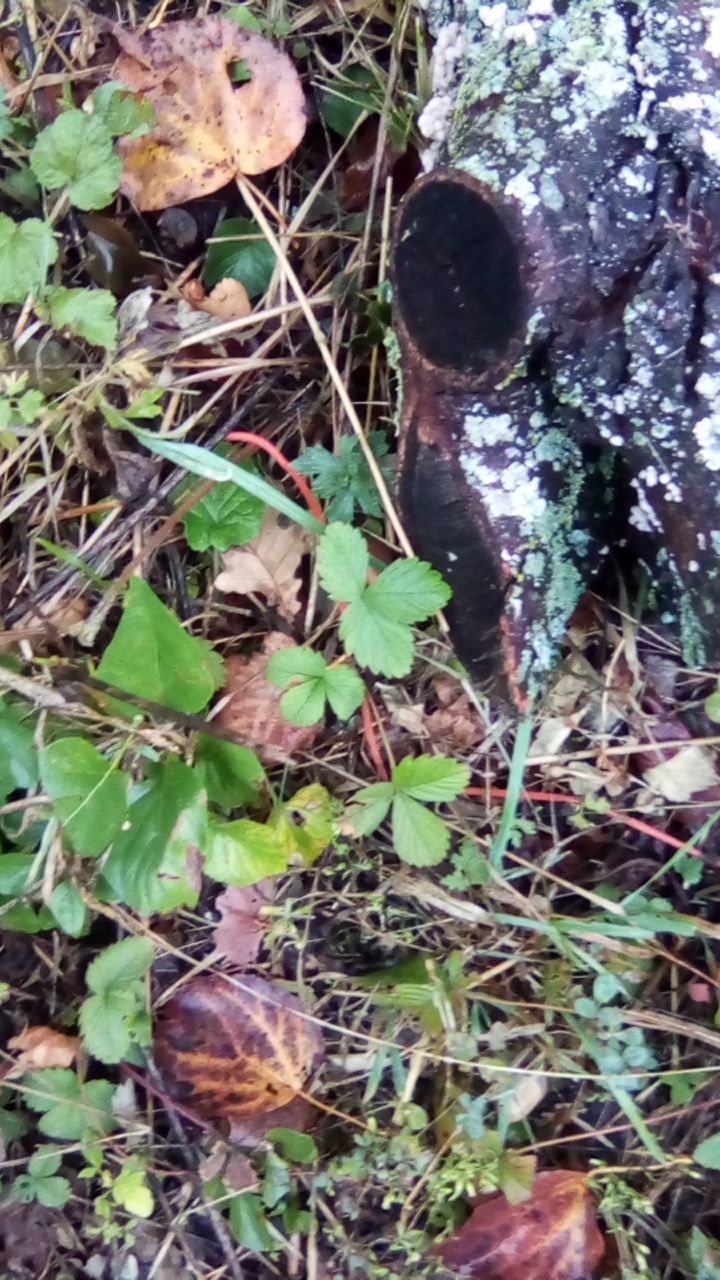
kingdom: Plantae
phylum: Tracheophyta
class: Magnoliopsida
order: Rosales
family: Rosaceae
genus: Fragaria
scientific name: Fragaria vesca
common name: Wild strawberry
